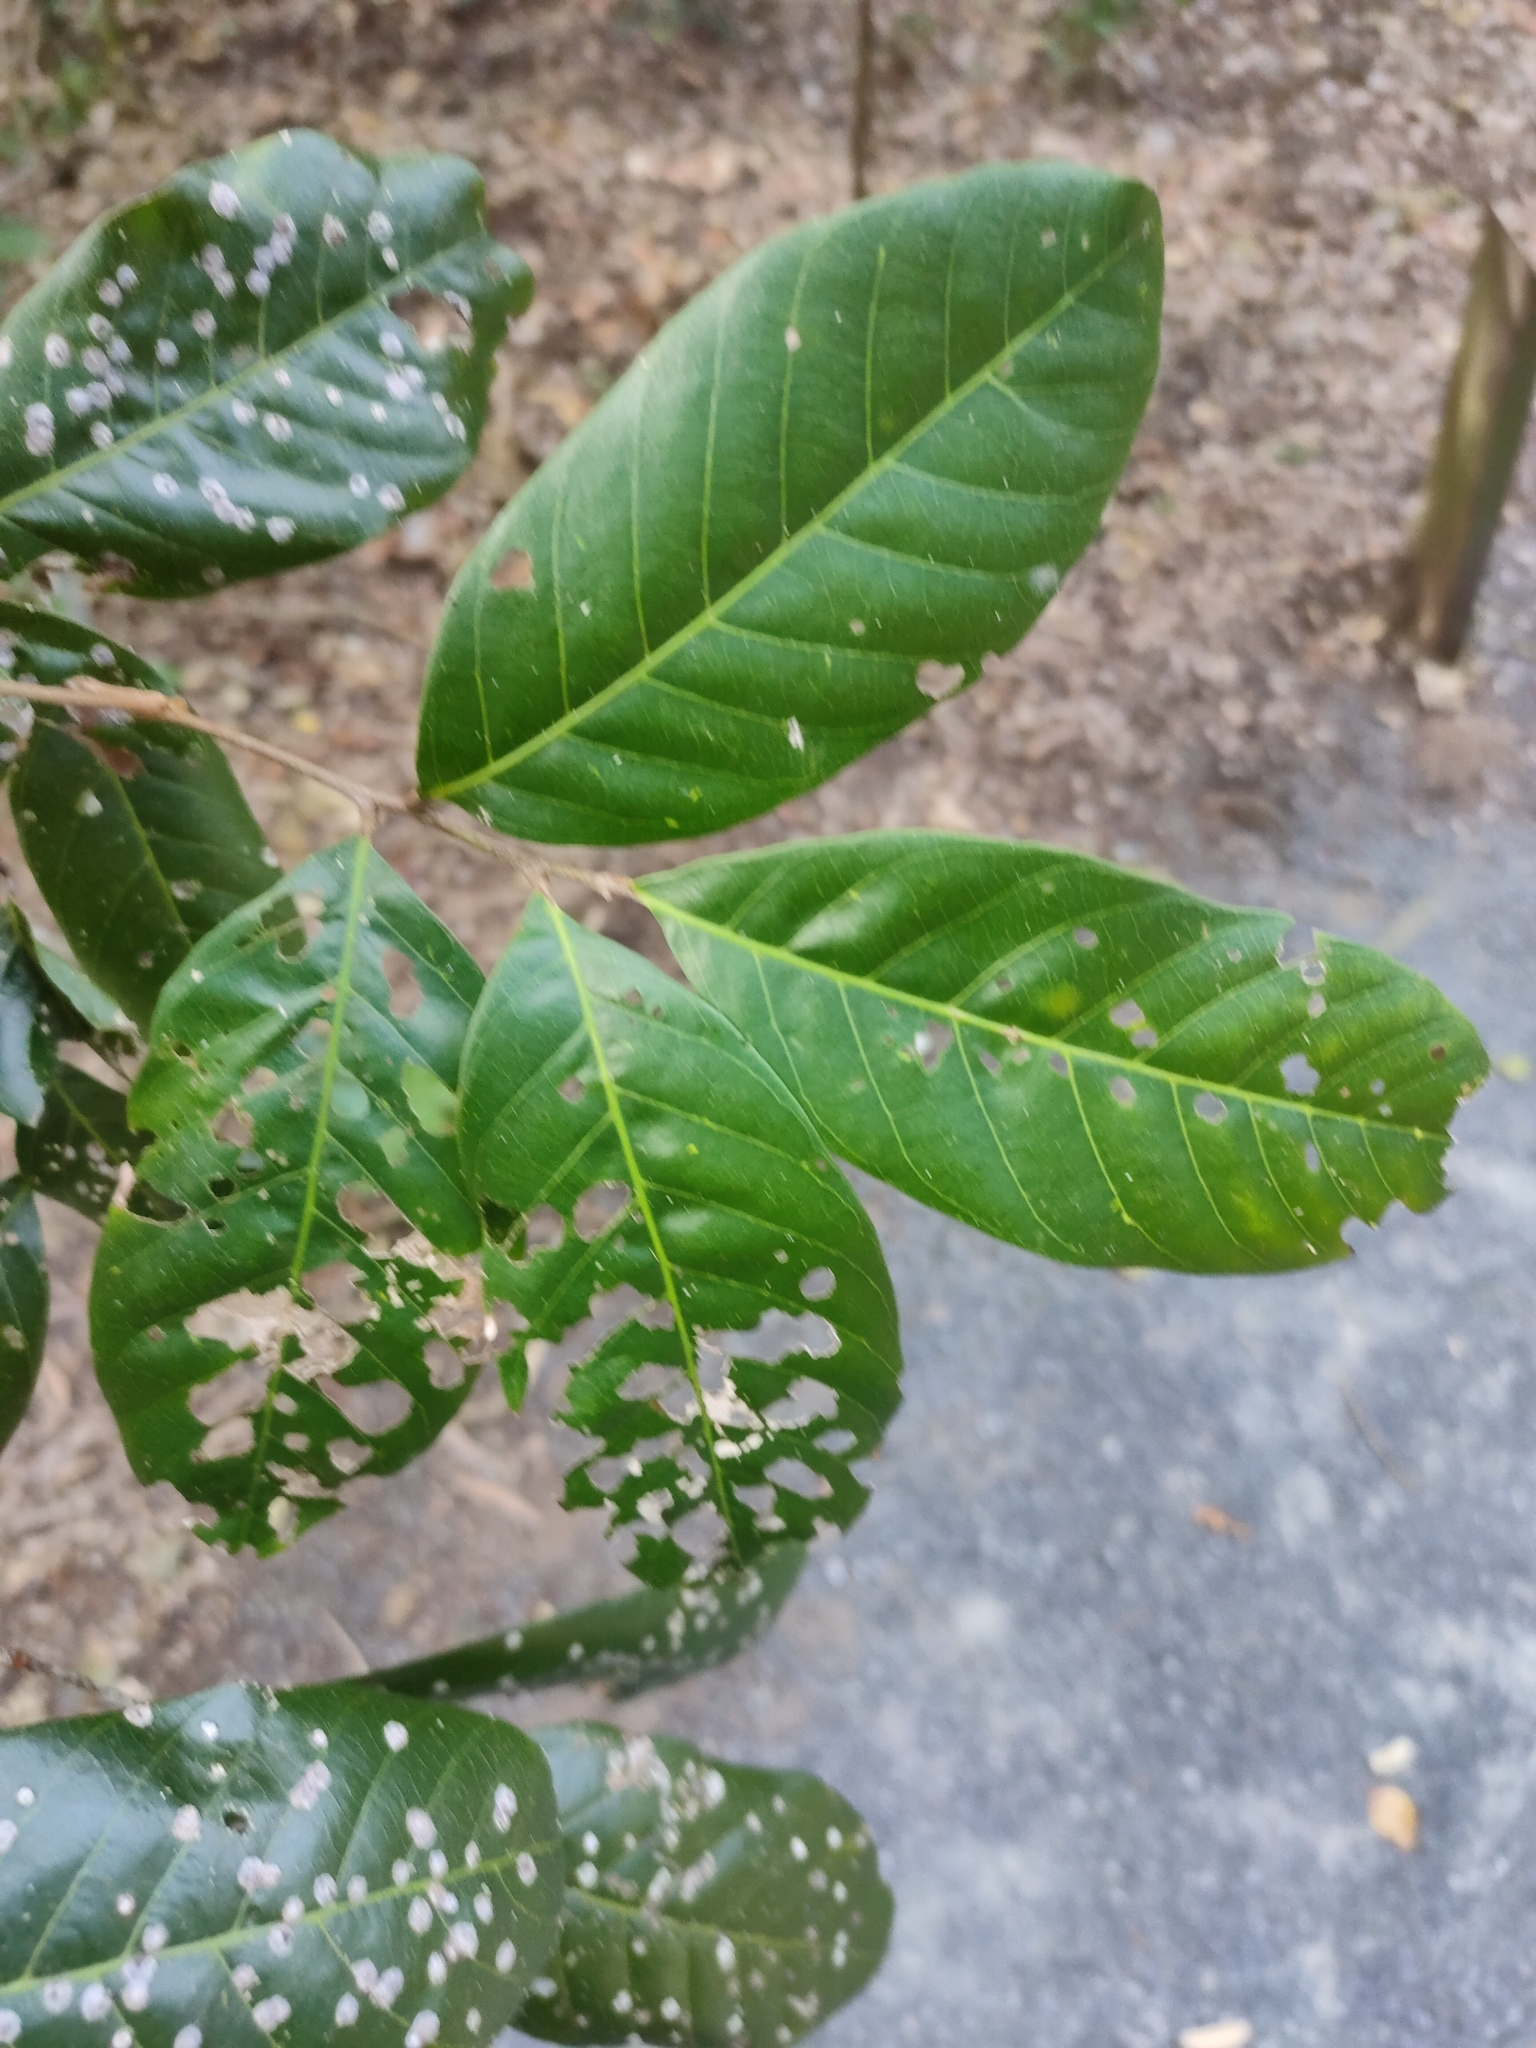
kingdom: Plantae
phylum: Tracheophyta
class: Magnoliopsida
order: Sapindales
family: Sapindaceae
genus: Arytera
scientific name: Arytera divaricata
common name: Coogera
